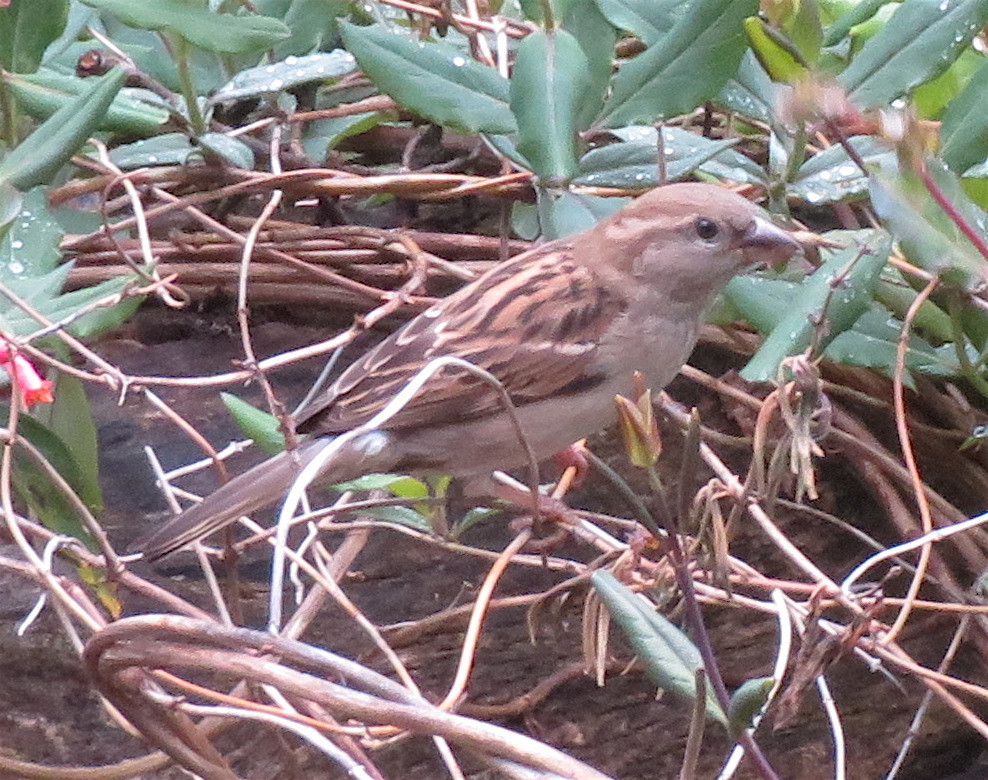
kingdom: Animalia
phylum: Chordata
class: Aves
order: Passeriformes
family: Passeridae
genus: Passer
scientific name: Passer domesticus
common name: House sparrow
